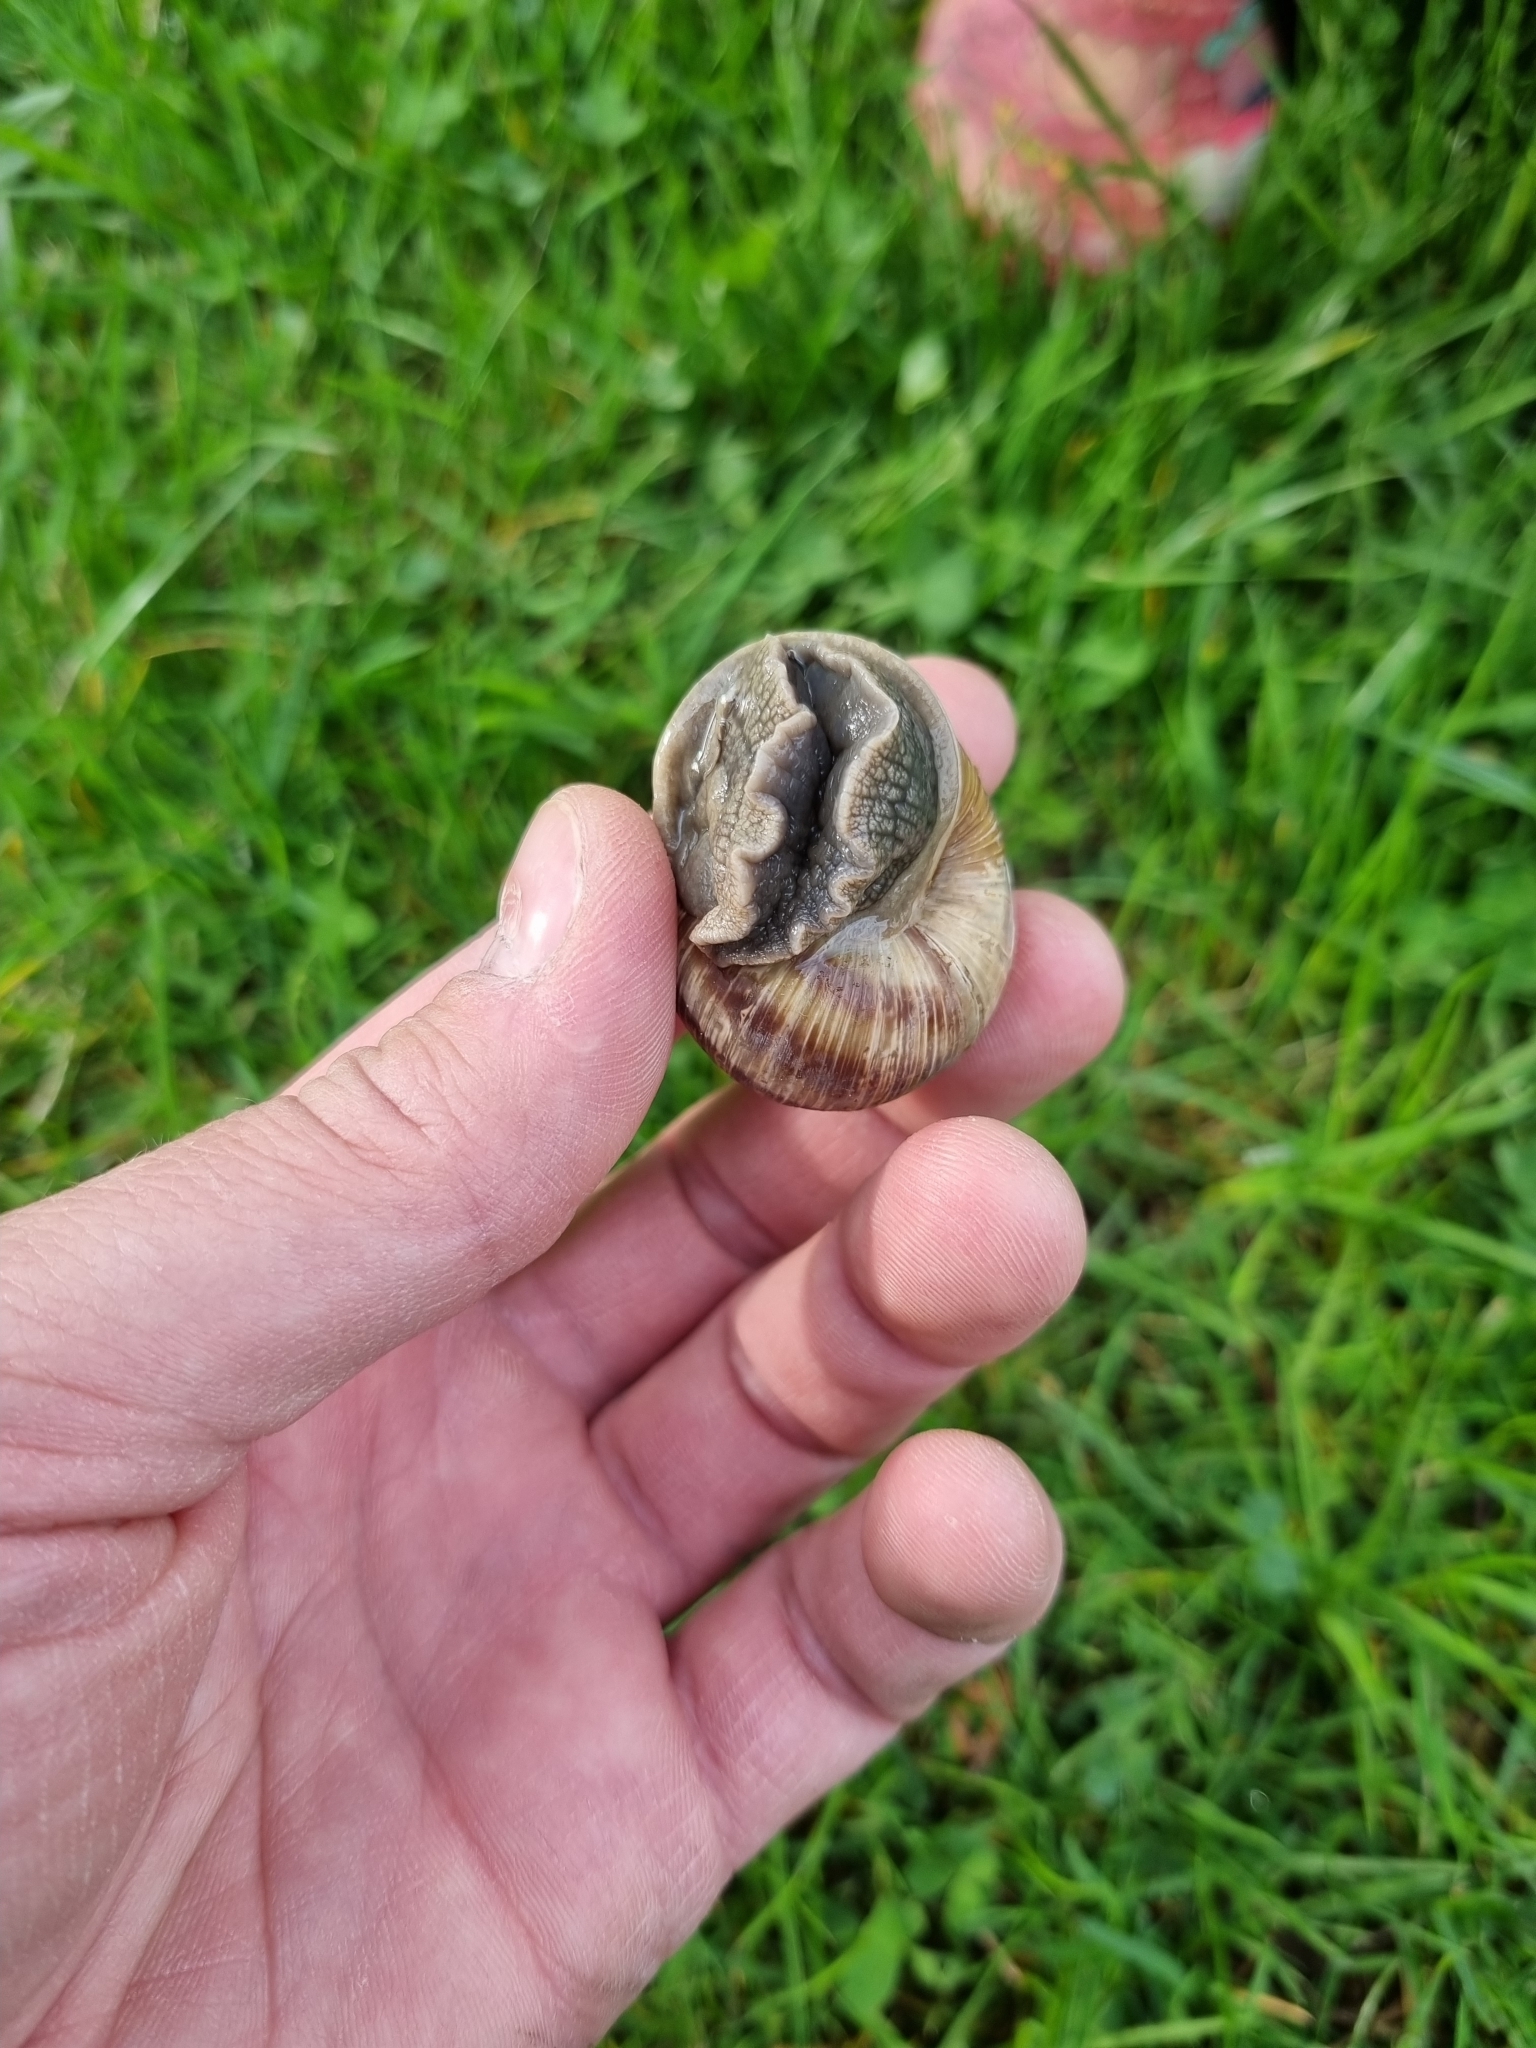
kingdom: Animalia
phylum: Mollusca
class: Gastropoda
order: Stylommatophora
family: Helicidae
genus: Helix
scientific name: Helix pomatia
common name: Roman snail
